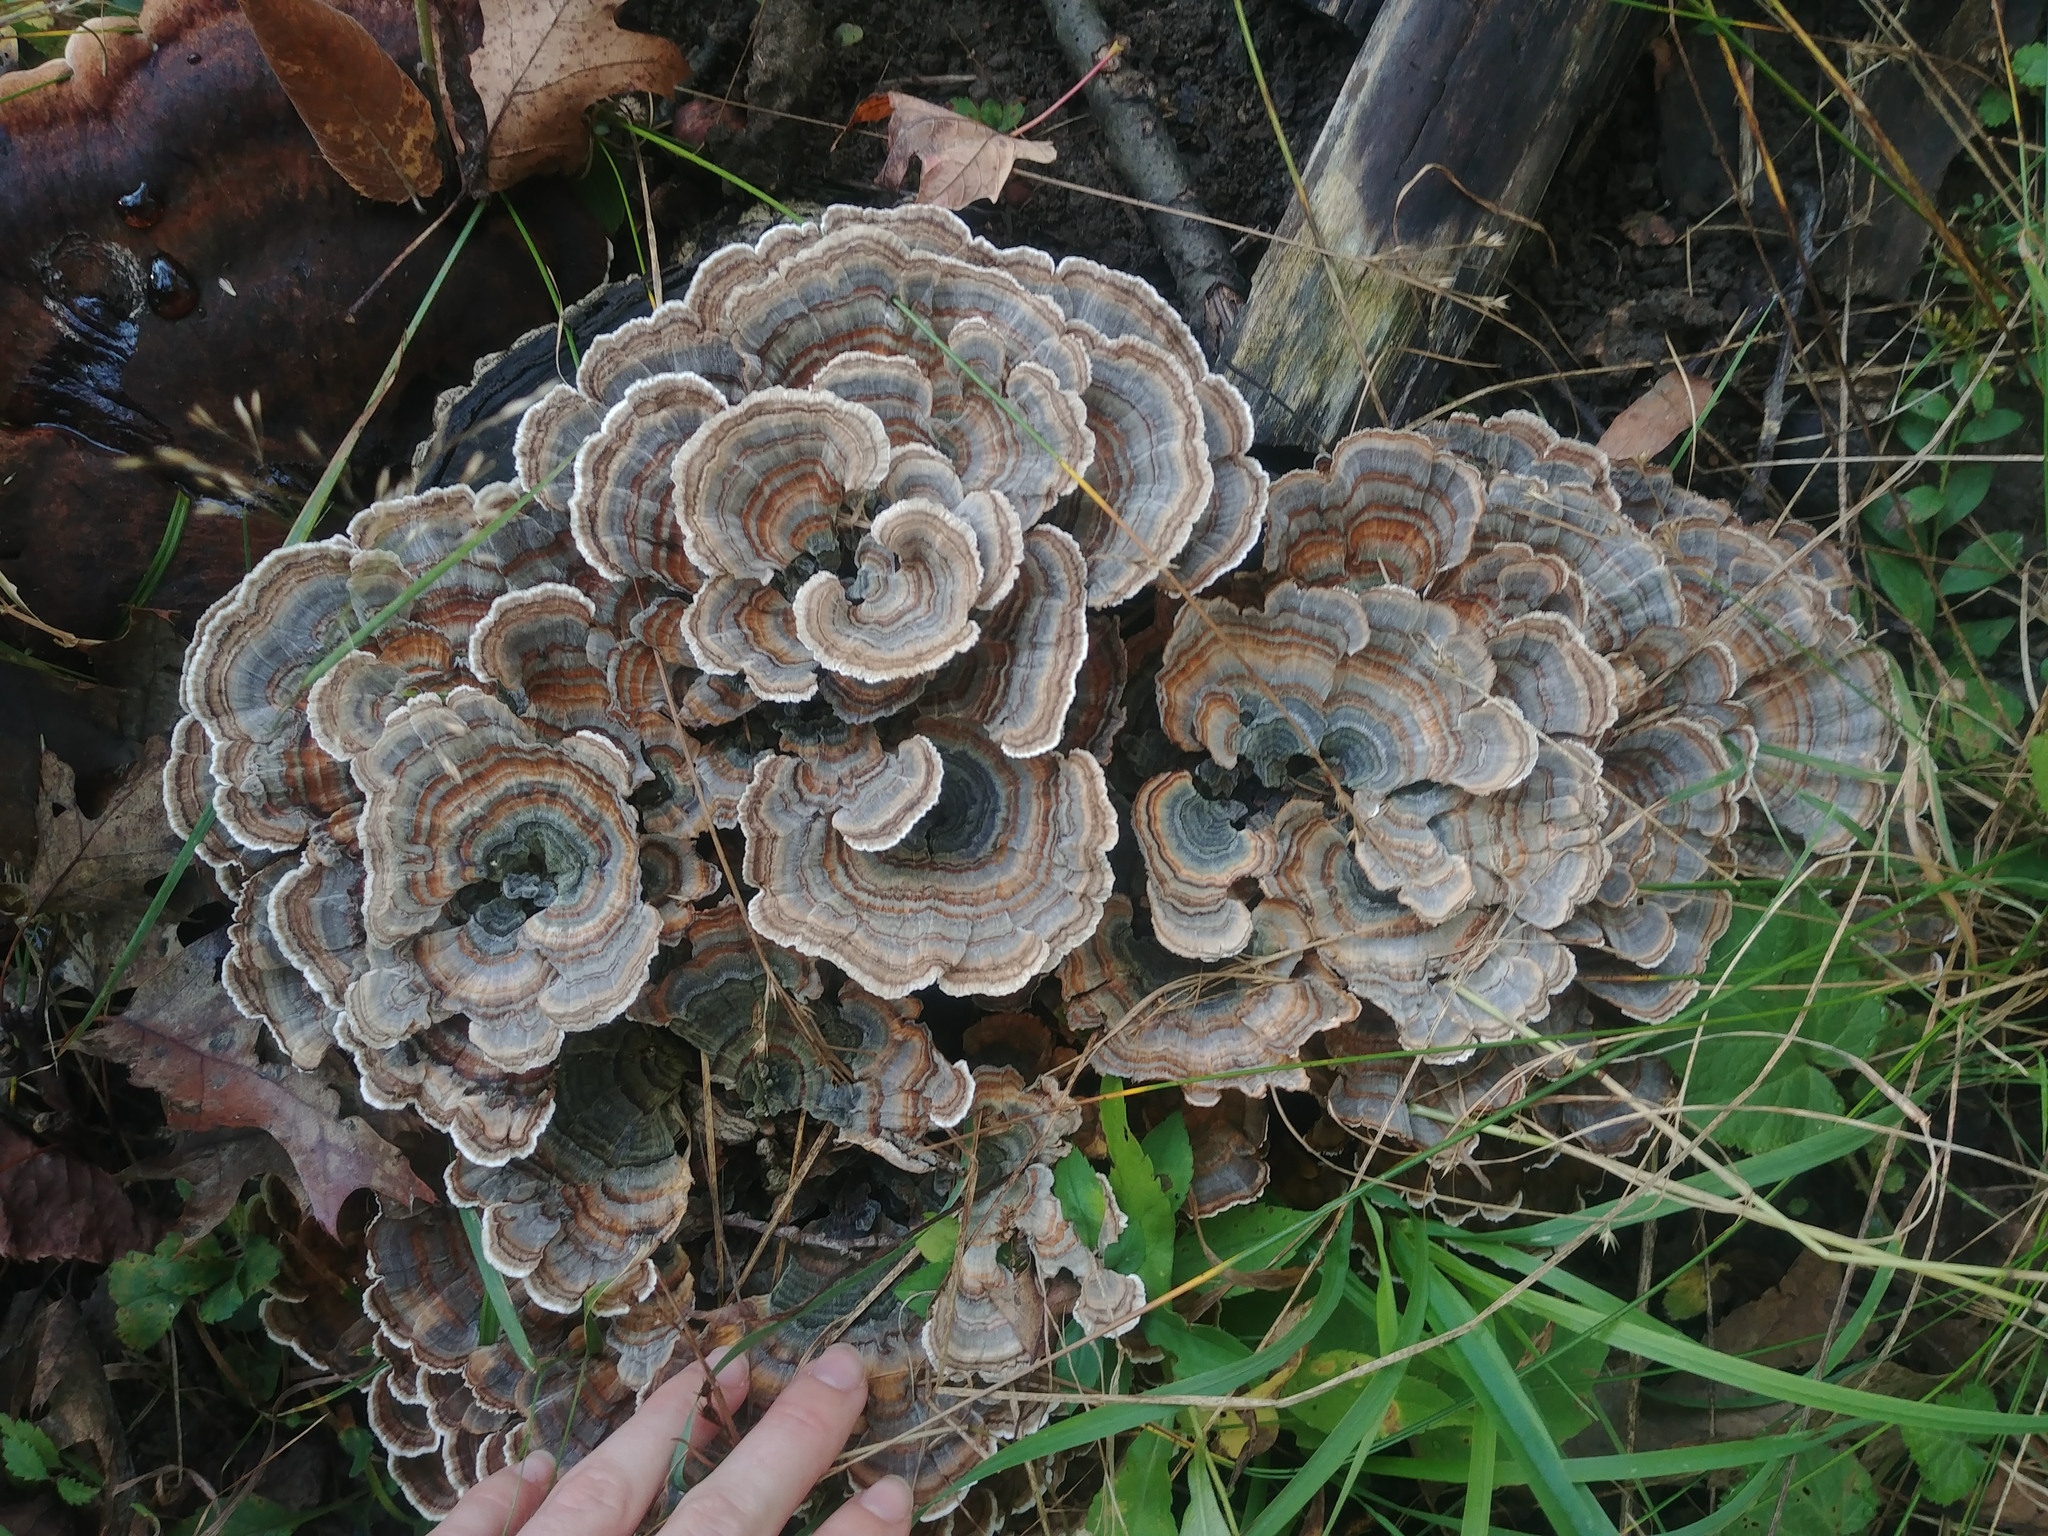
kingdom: Fungi
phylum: Basidiomycota
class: Agaricomycetes
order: Polyporales
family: Polyporaceae
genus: Trametes
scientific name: Trametes versicolor
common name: Turkeytail
